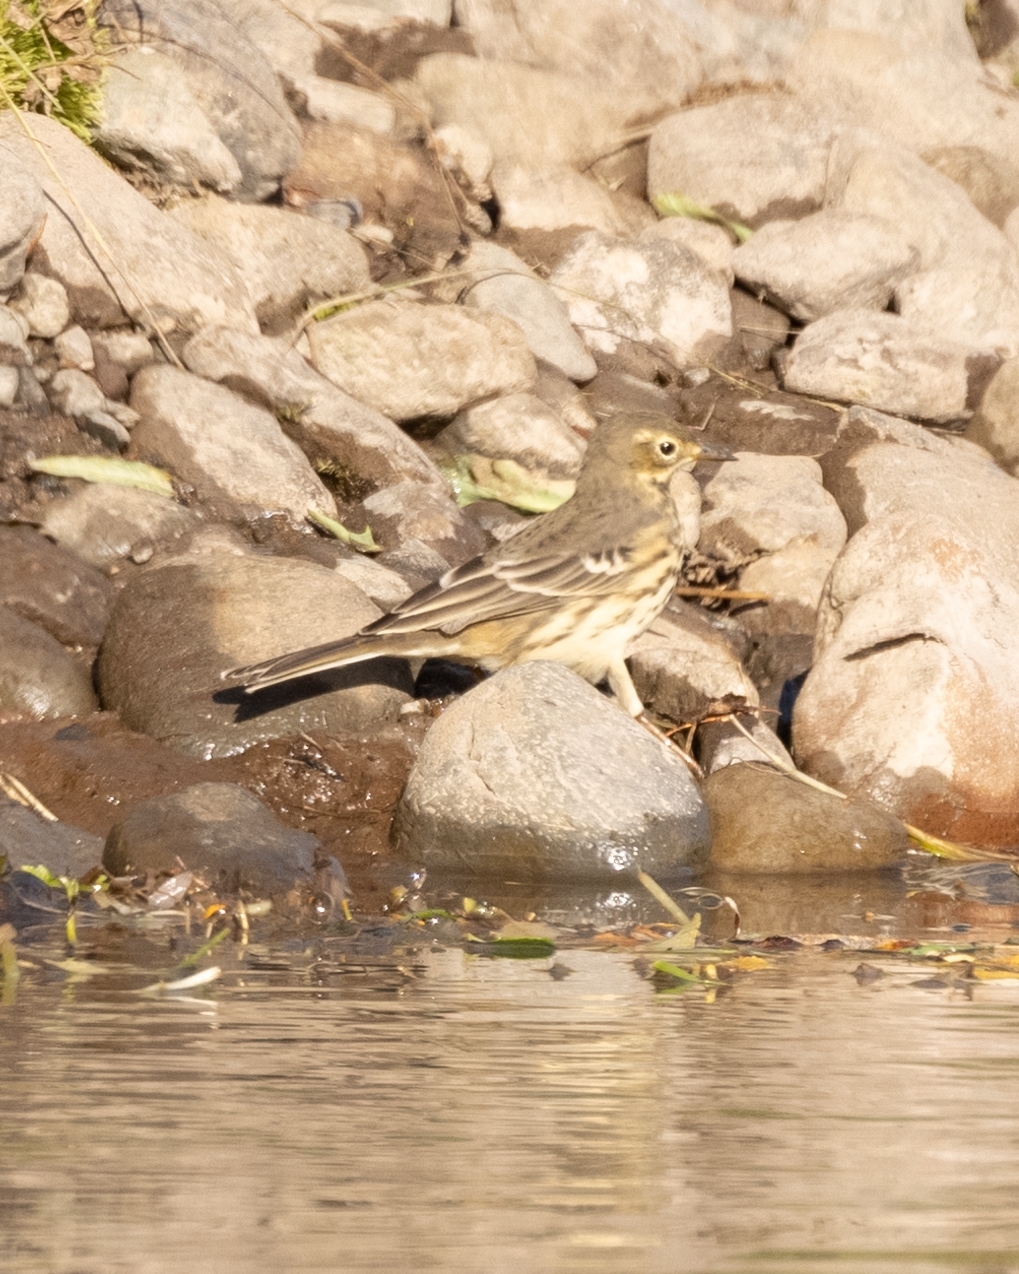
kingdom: Animalia
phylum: Chordata
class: Aves
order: Passeriformes
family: Motacillidae
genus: Anthus
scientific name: Anthus rubescens
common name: Buff-bellied pipit
